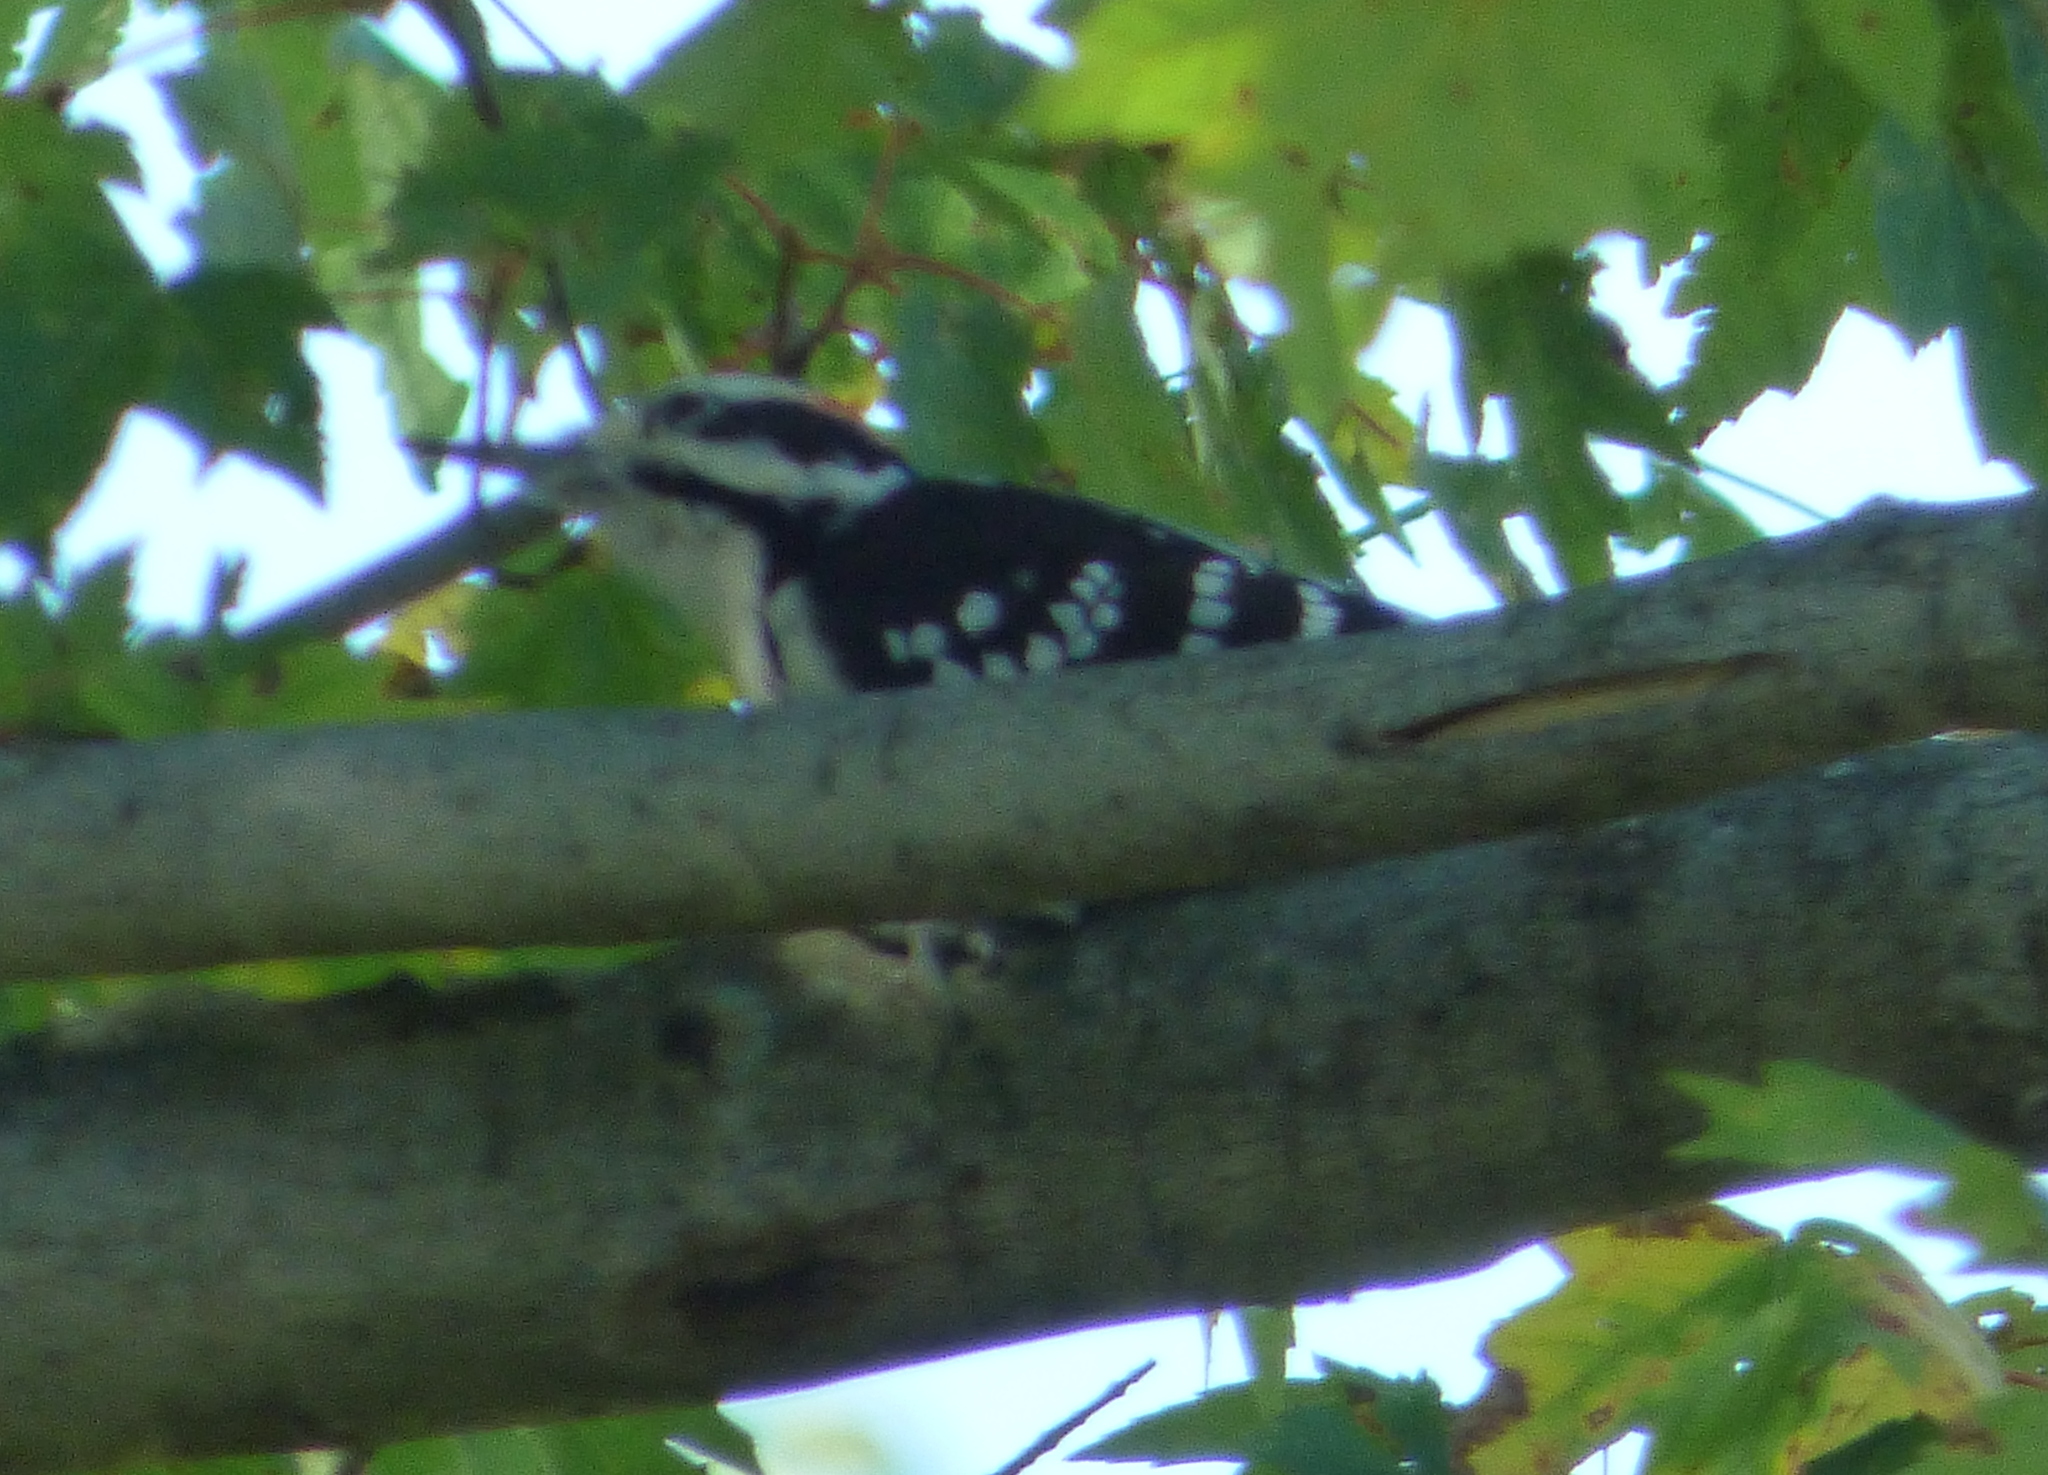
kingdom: Animalia
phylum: Chordata
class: Aves
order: Piciformes
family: Picidae
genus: Leuconotopicus
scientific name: Leuconotopicus villosus
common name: Hairy woodpecker
